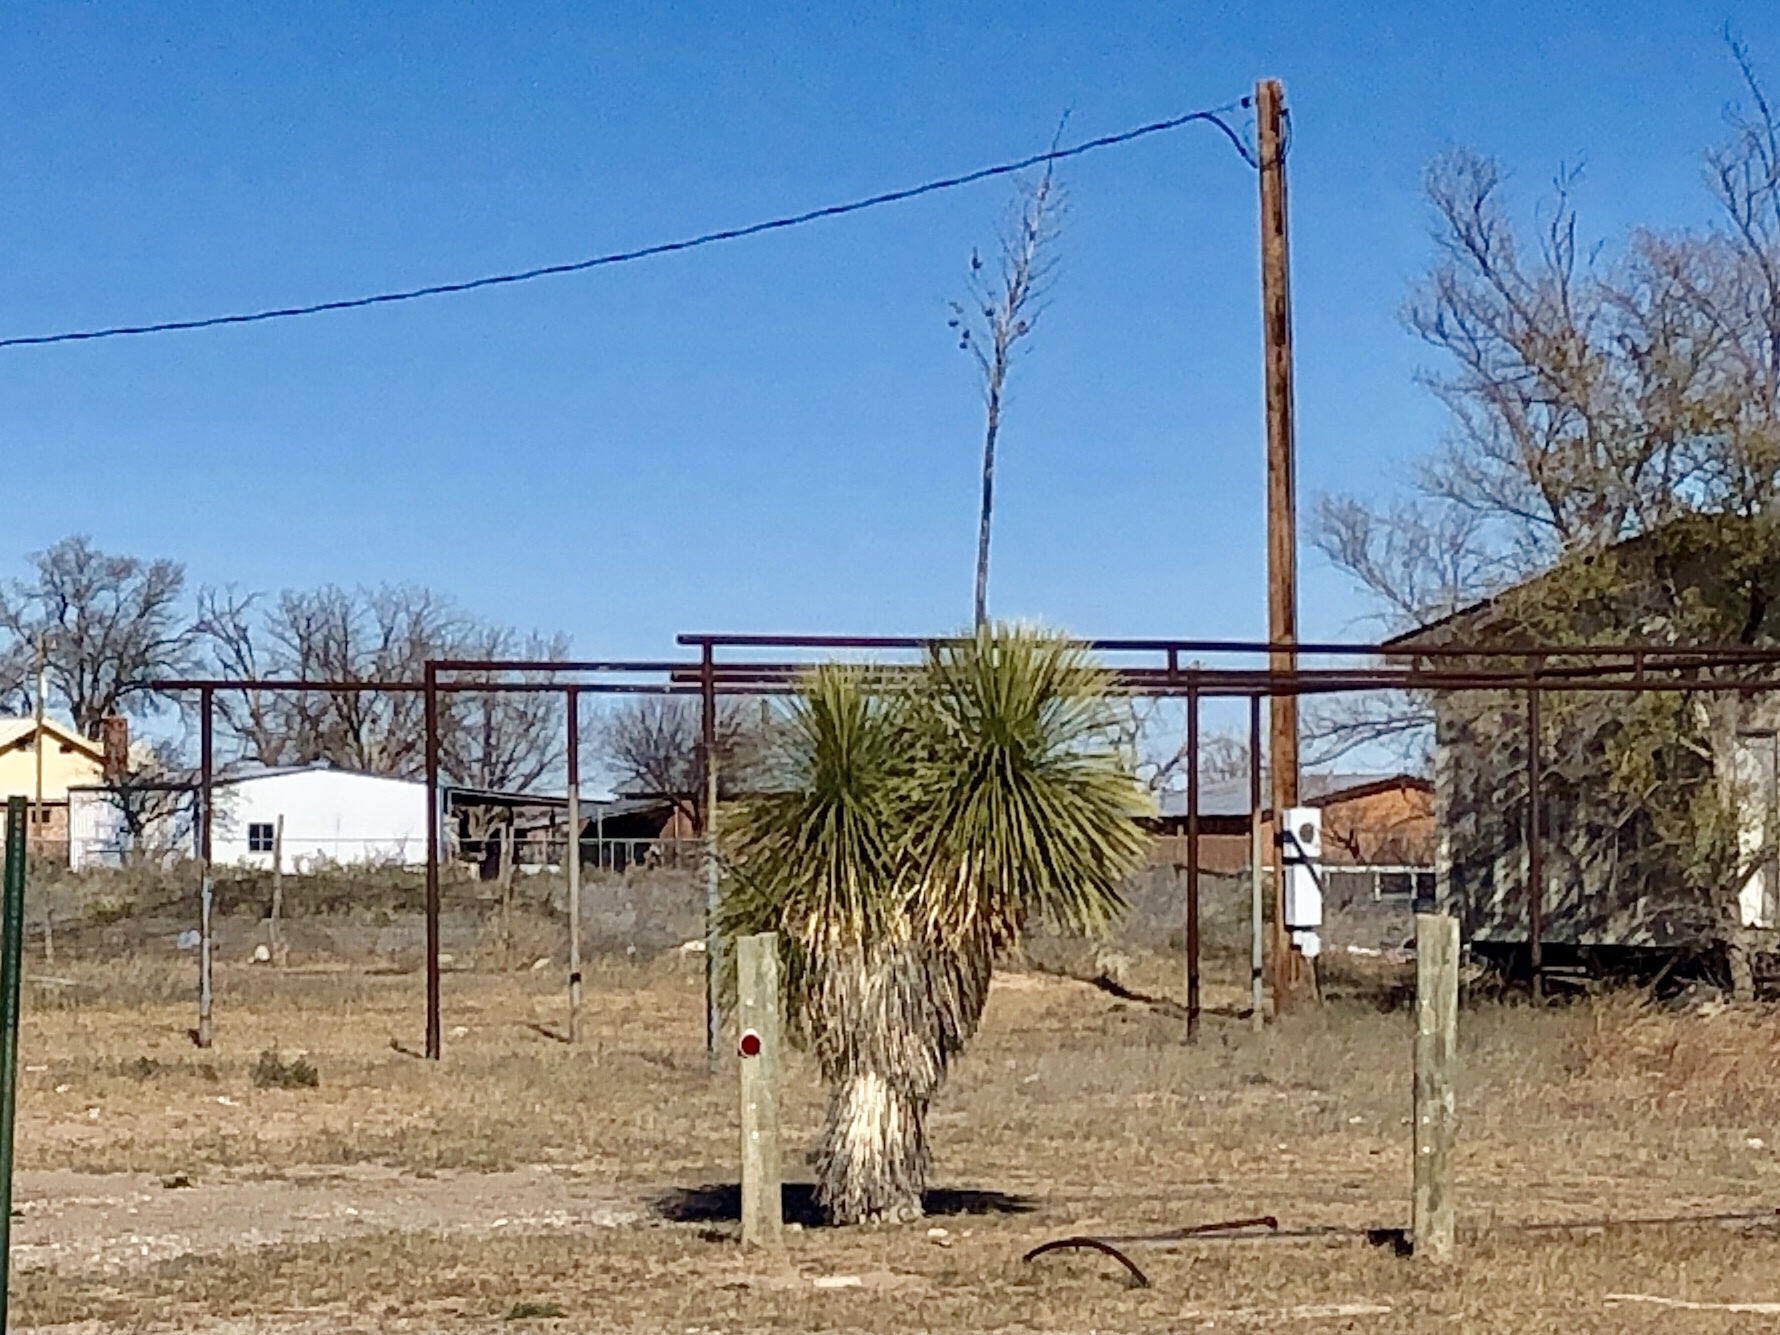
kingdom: Plantae
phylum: Tracheophyta
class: Liliopsida
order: Asparagales
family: Asparagaceae
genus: Yucca
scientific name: Yucca elata
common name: Palmella
